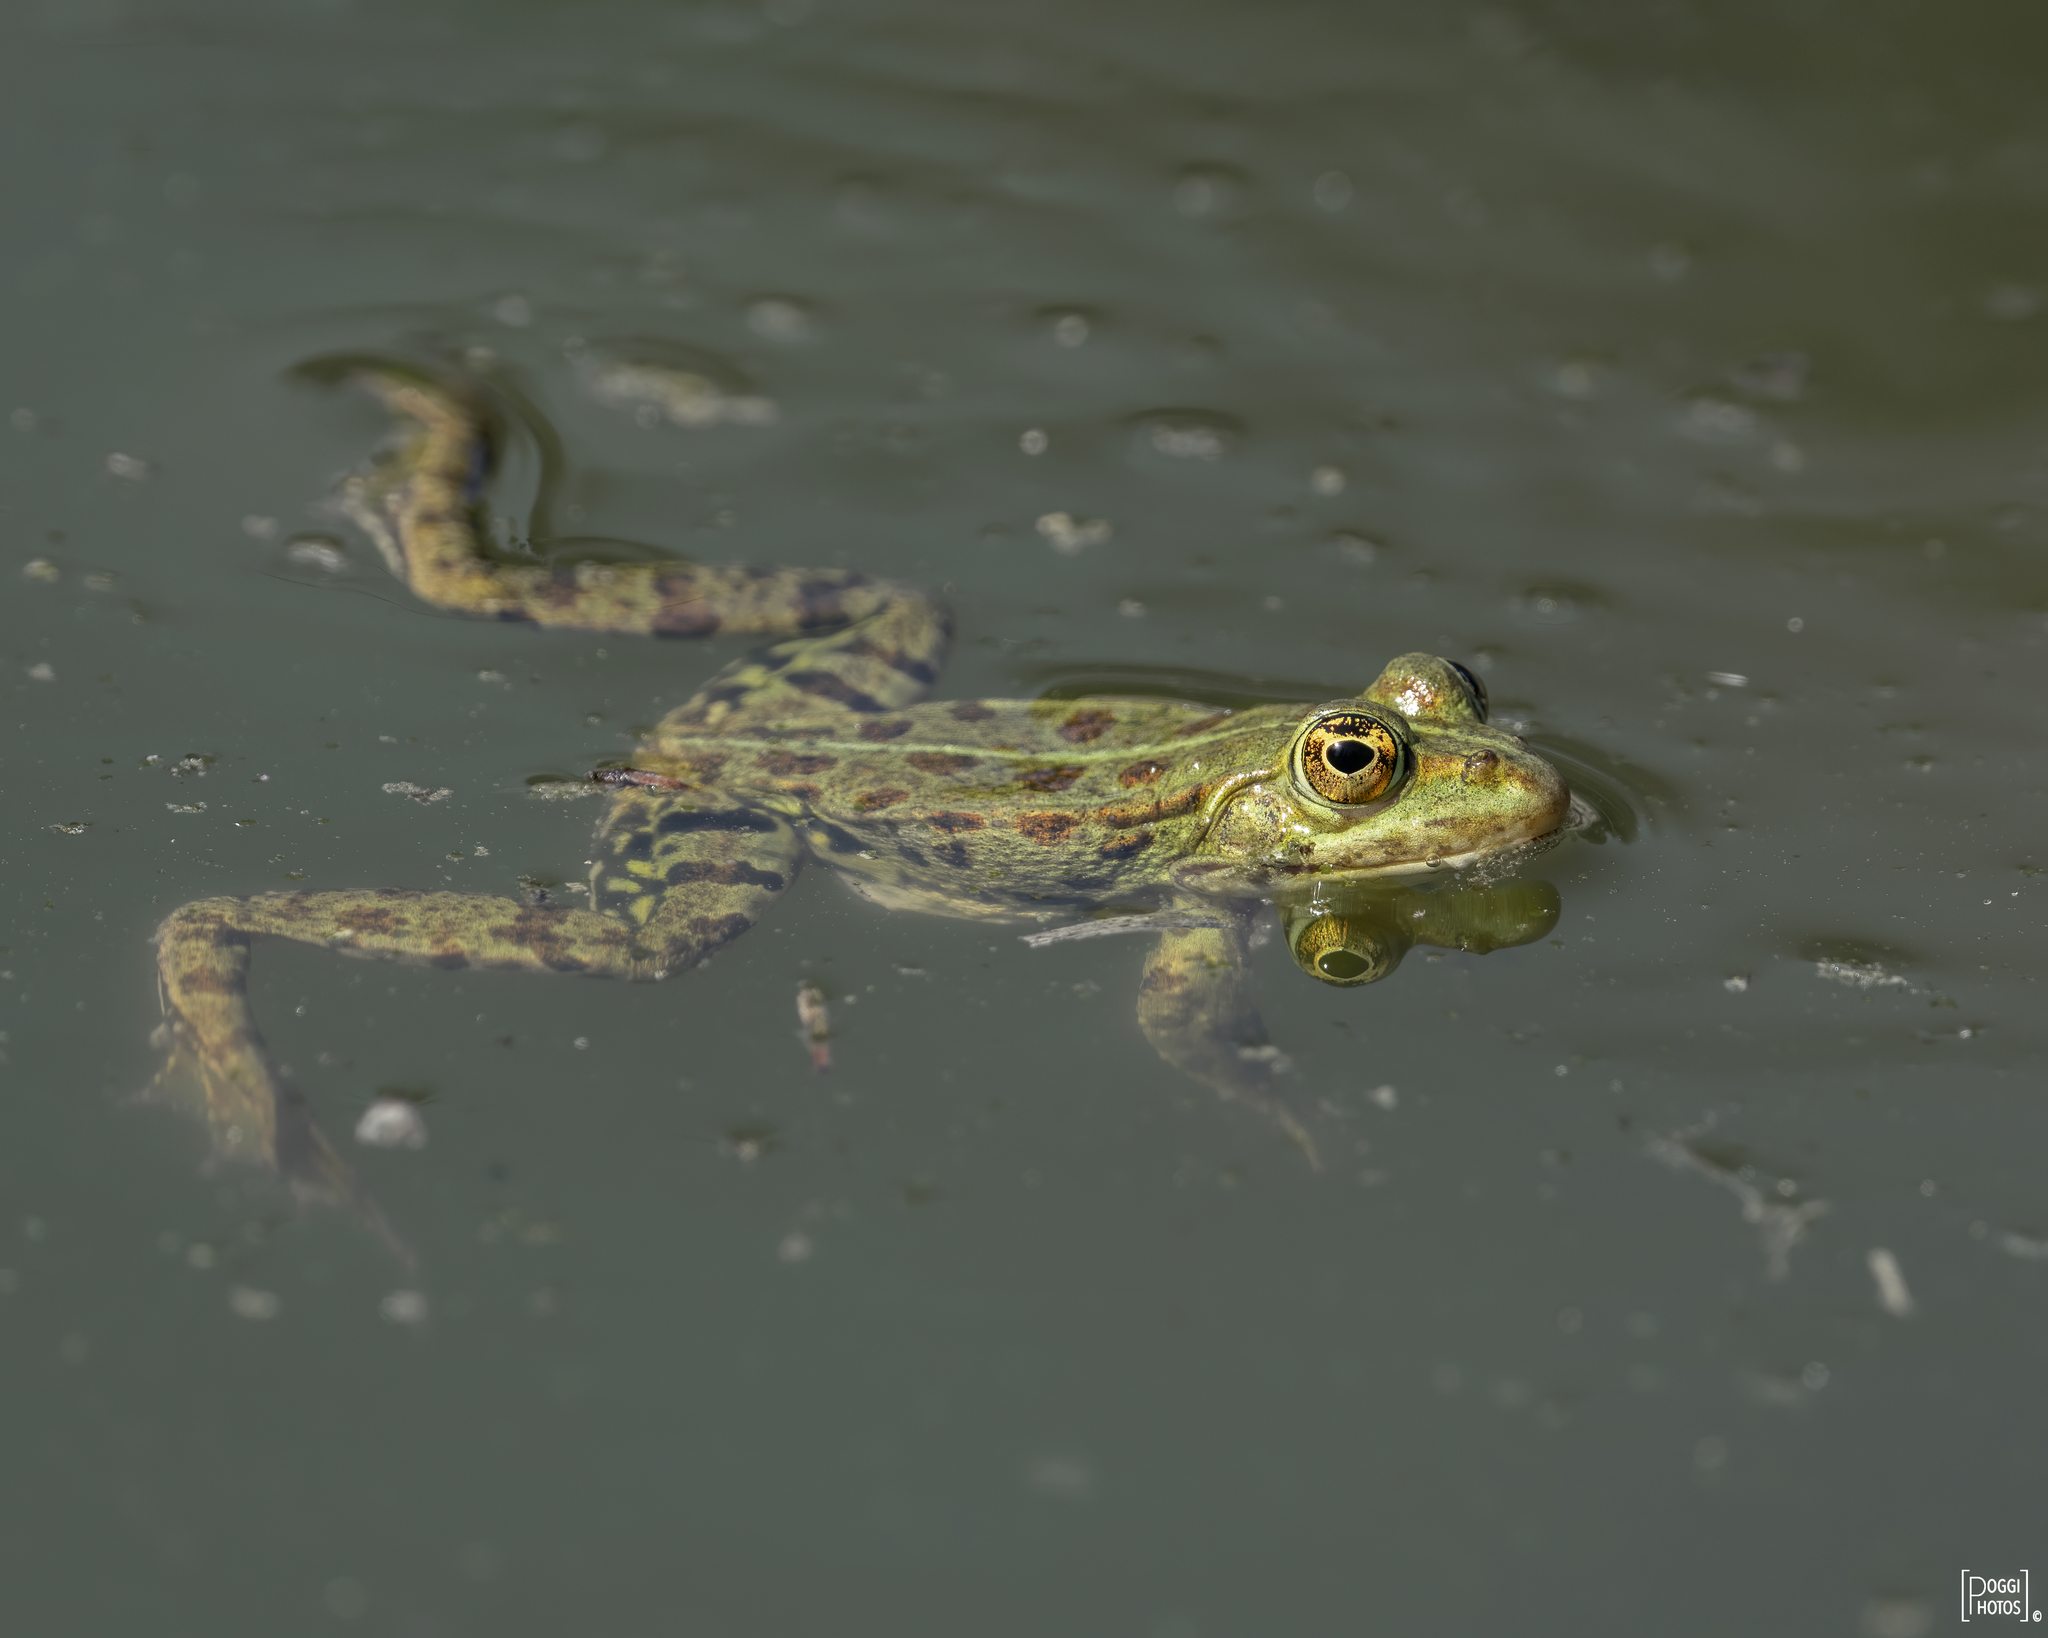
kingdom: Animalia
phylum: Chordata
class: Amphibia
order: Anura
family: Ranidae
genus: Pelophylax
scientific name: Pelophylax
